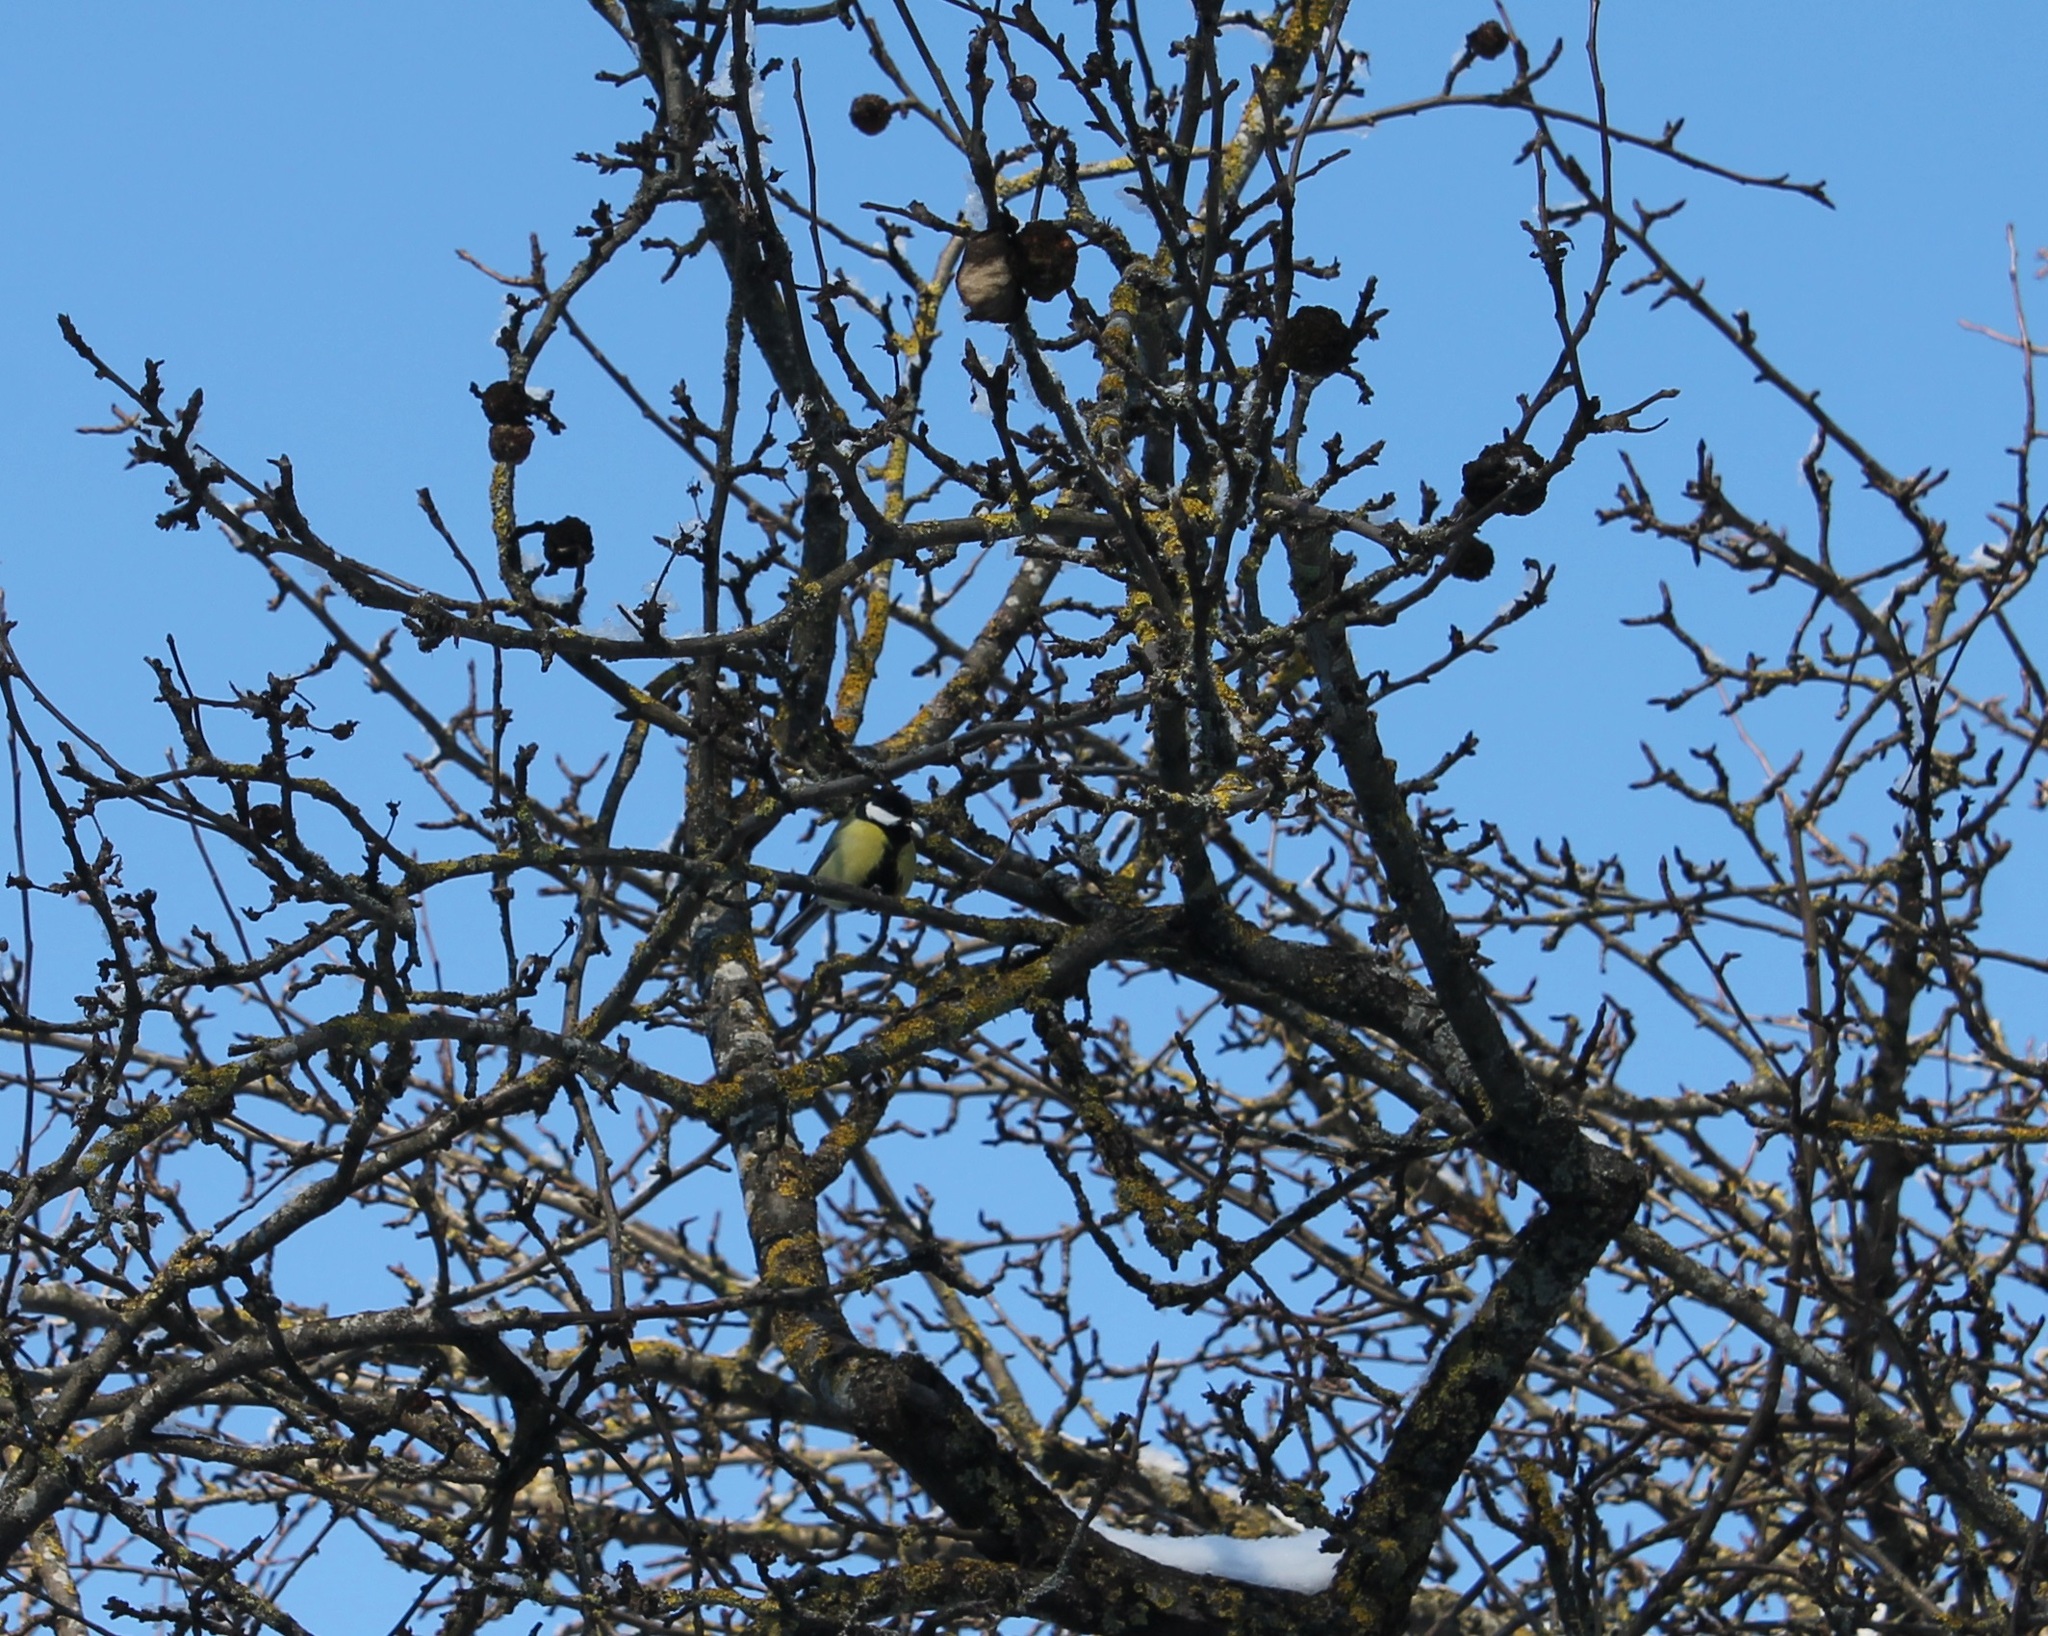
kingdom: Animalia
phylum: Chordata
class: Aves
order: Passeriformes
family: Paridae
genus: Parus
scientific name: Parus major
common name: Great tit
